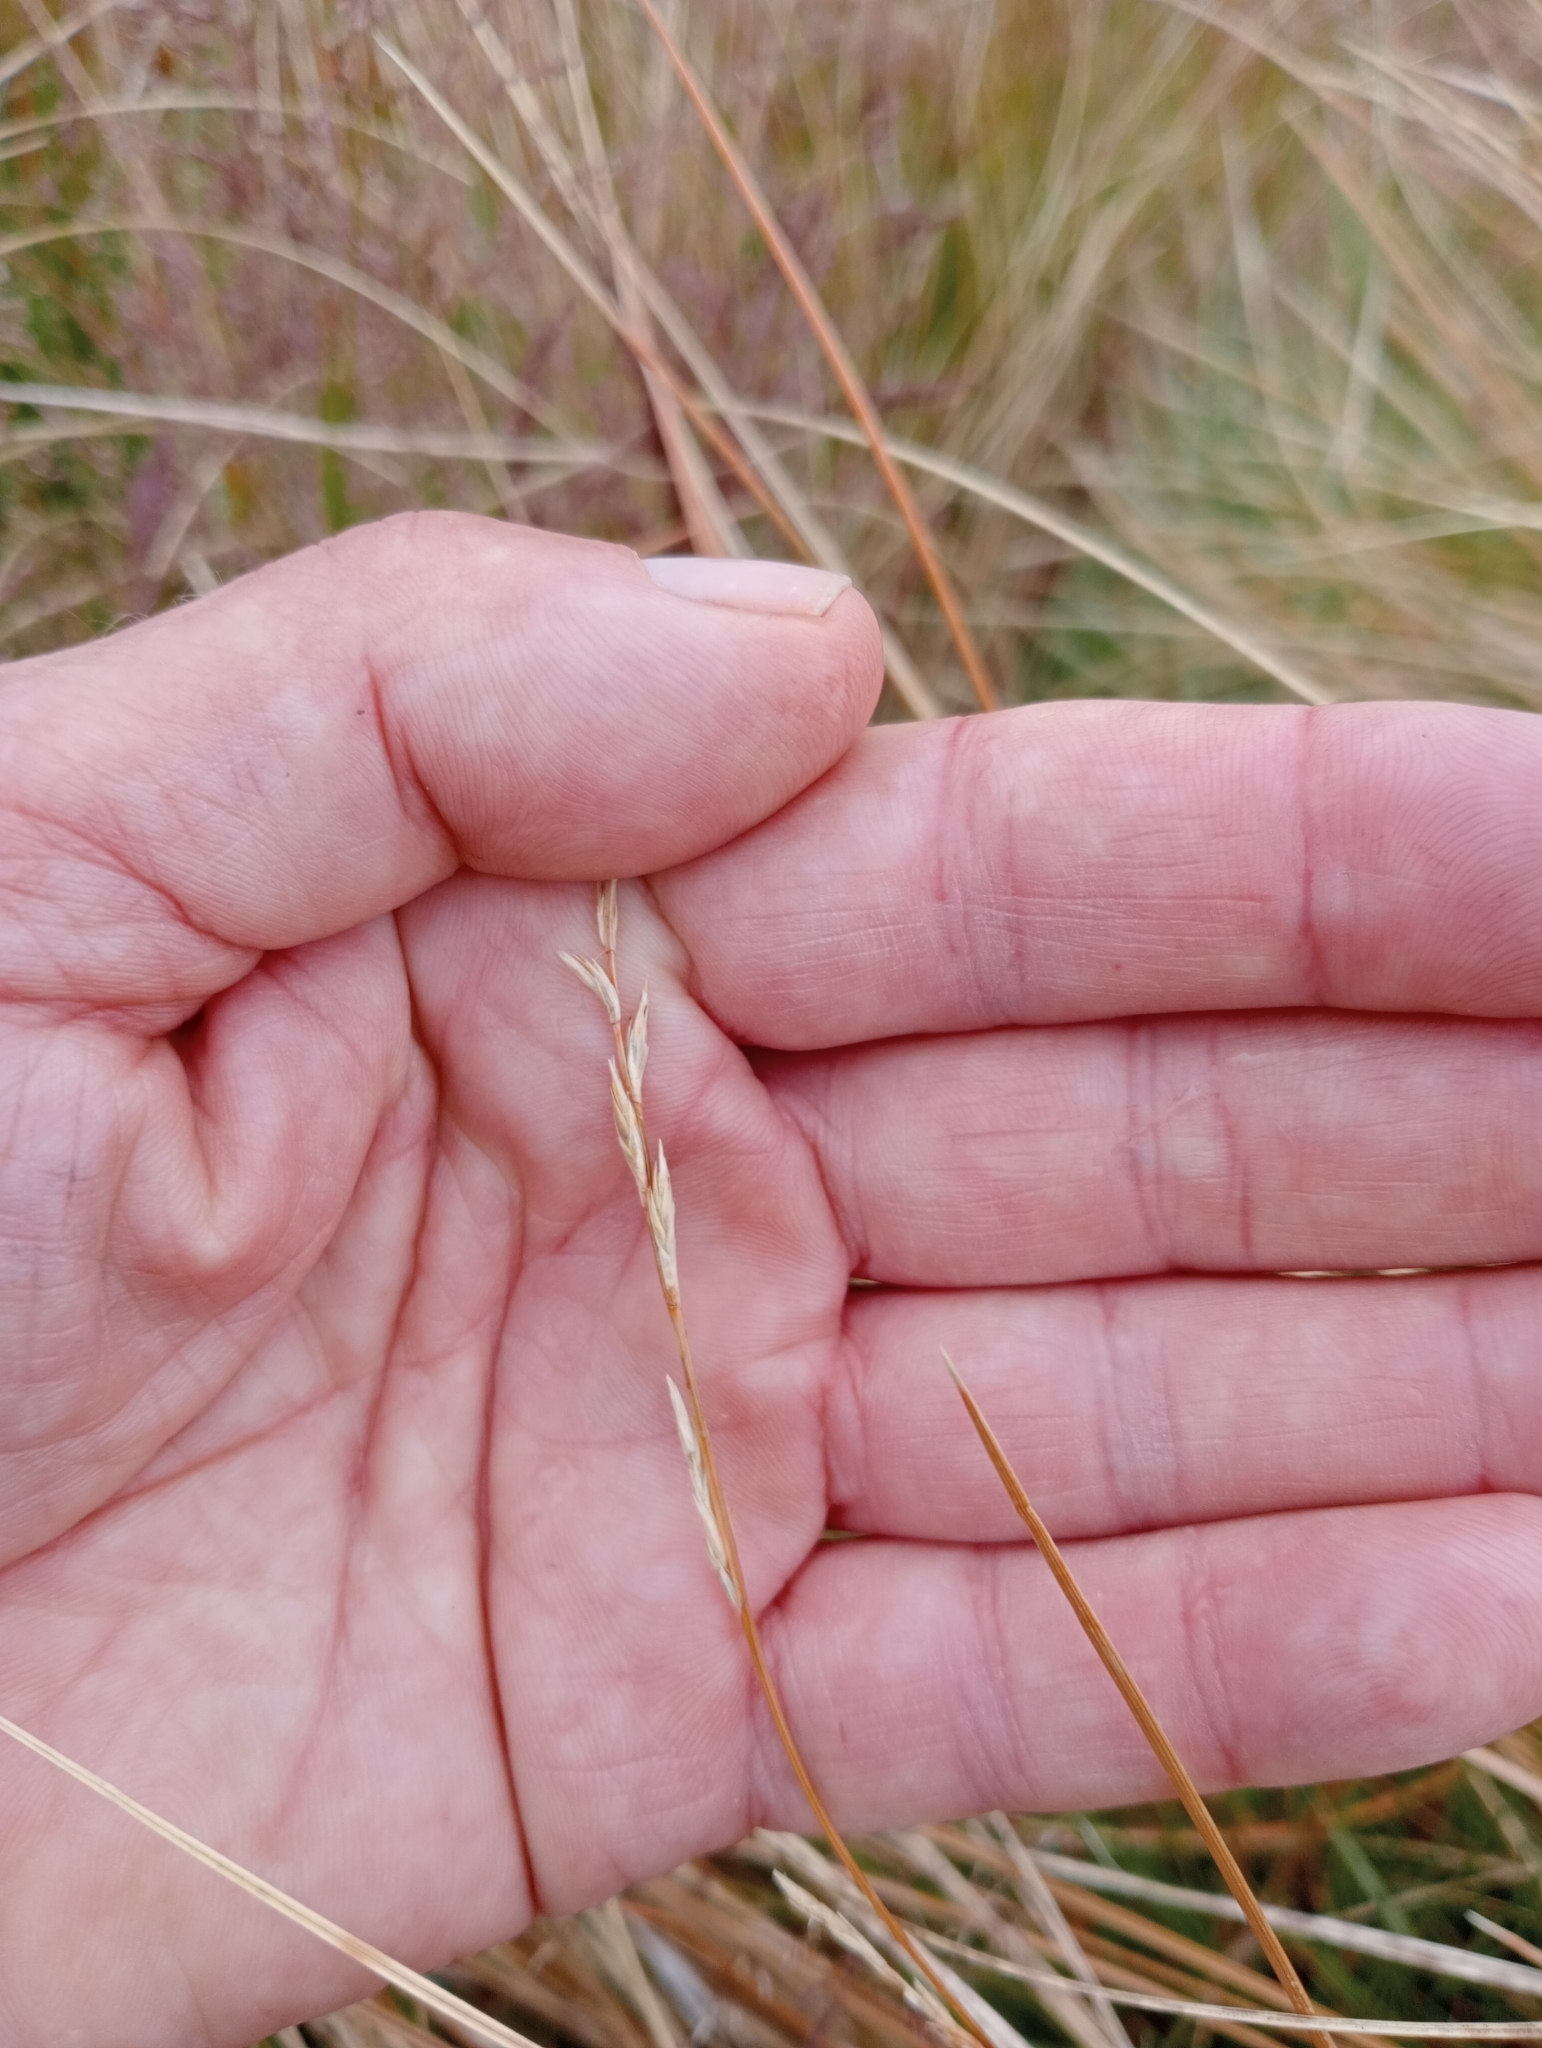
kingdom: Plantae
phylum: Tracheophyta
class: Liliopsida
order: Poales
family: Cyperaceae
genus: Carex
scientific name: Carex kaloides
